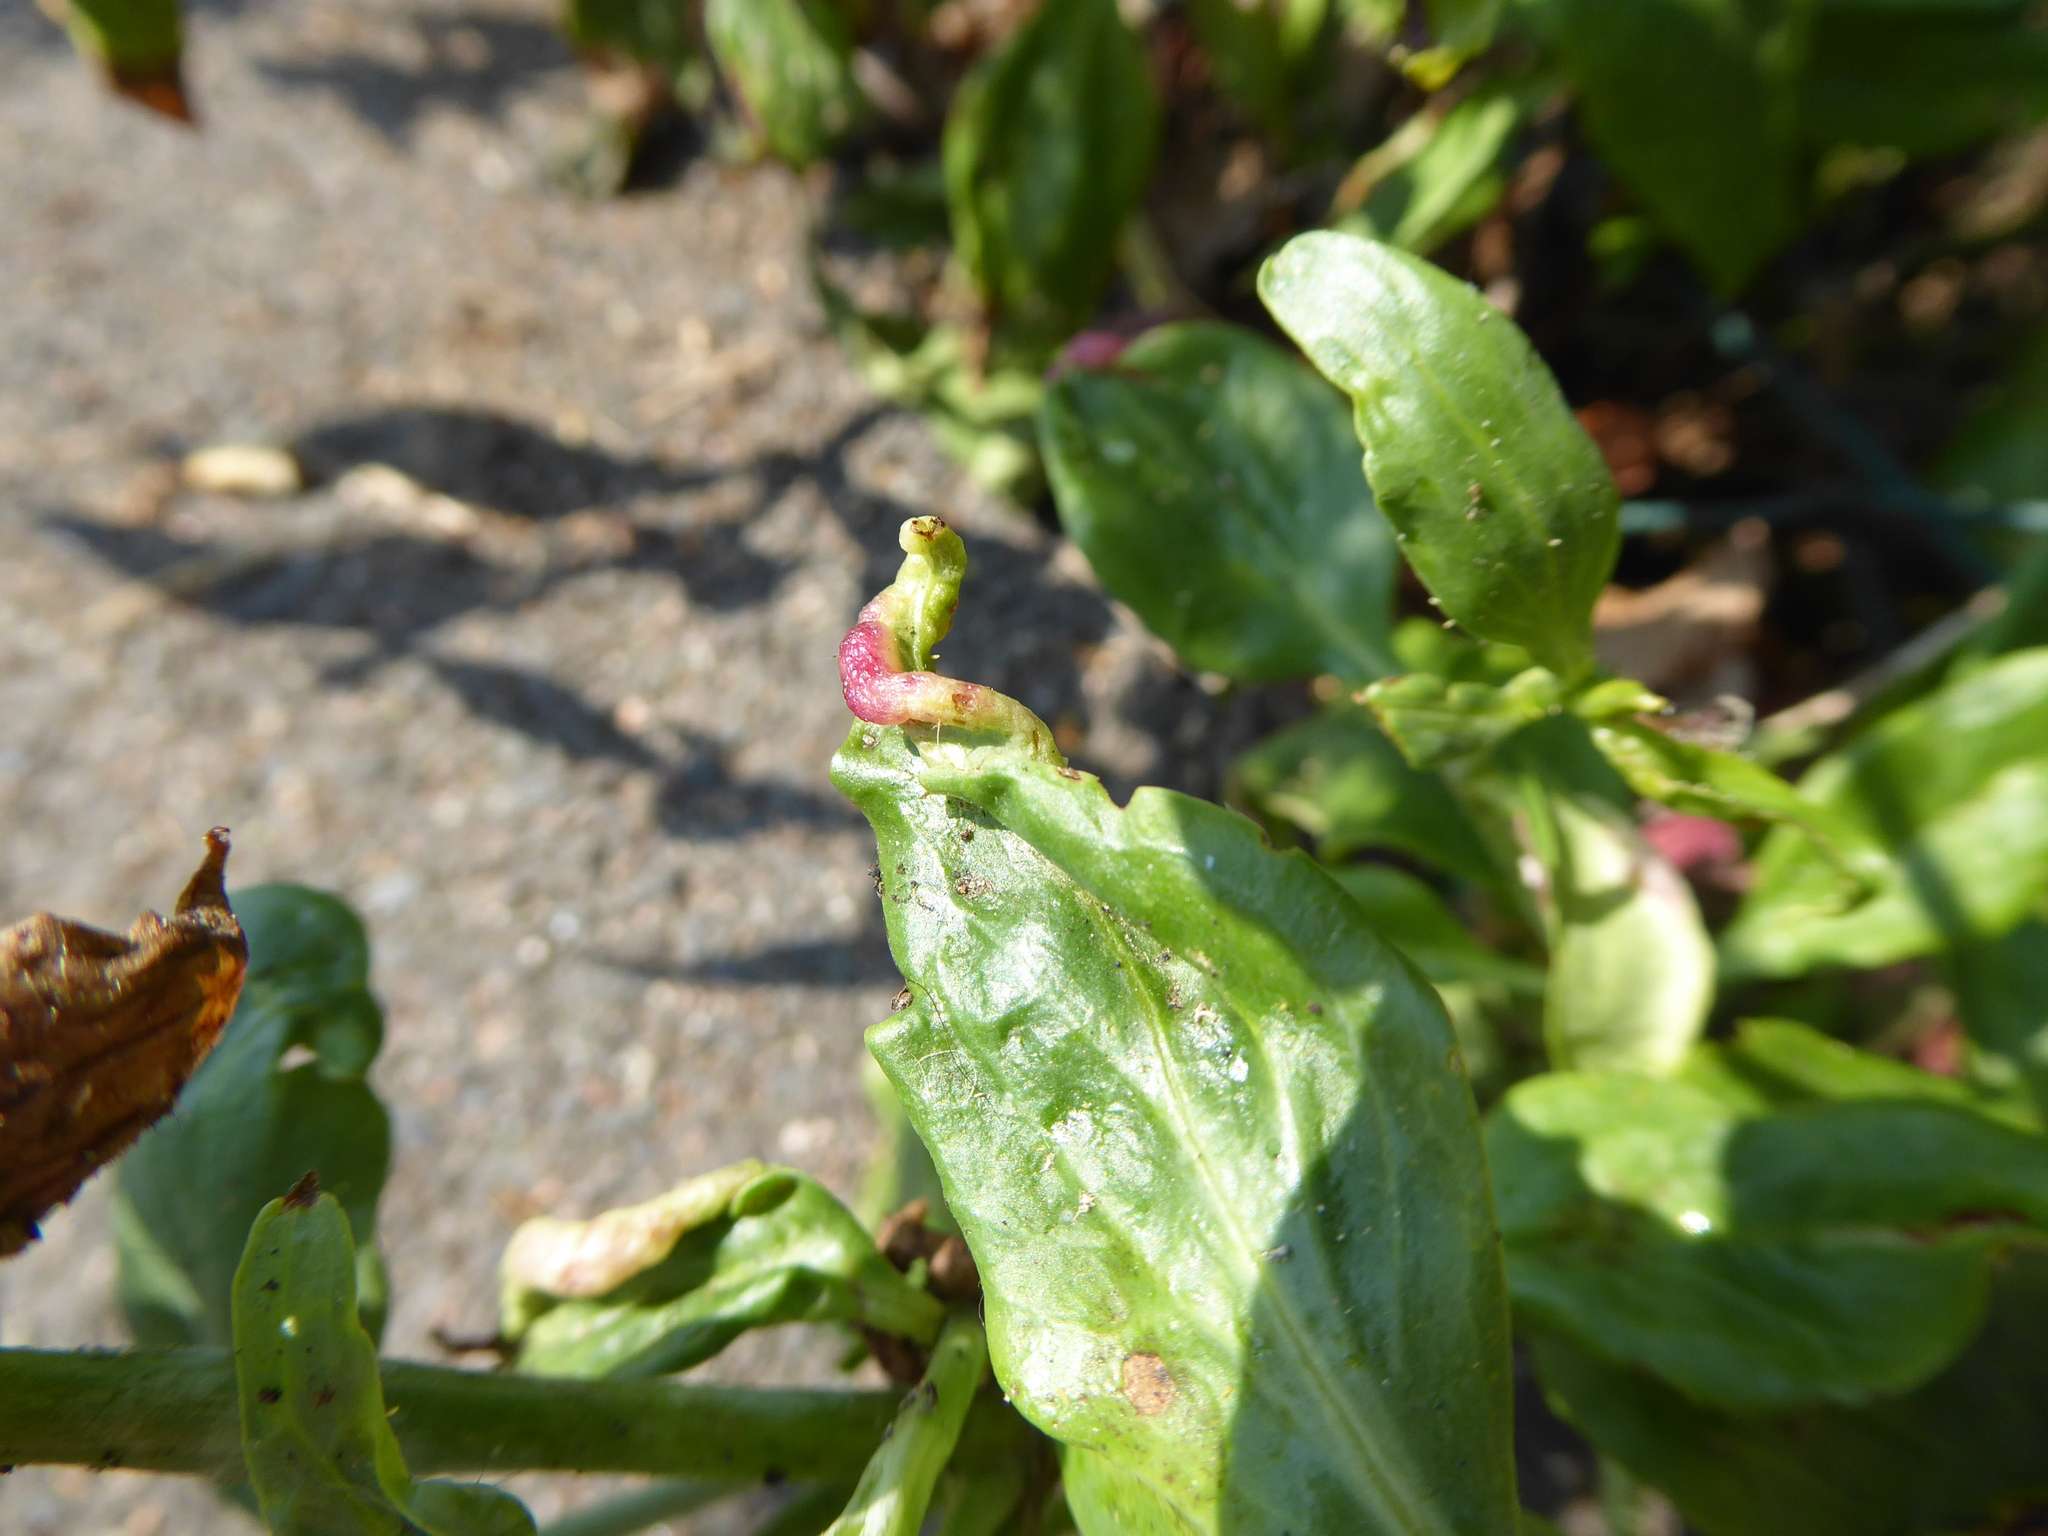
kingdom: Animalia
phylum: Arthropoda
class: Insecta
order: Hemiptera
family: Triozidae
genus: Trioza
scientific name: Trioza centranthi
